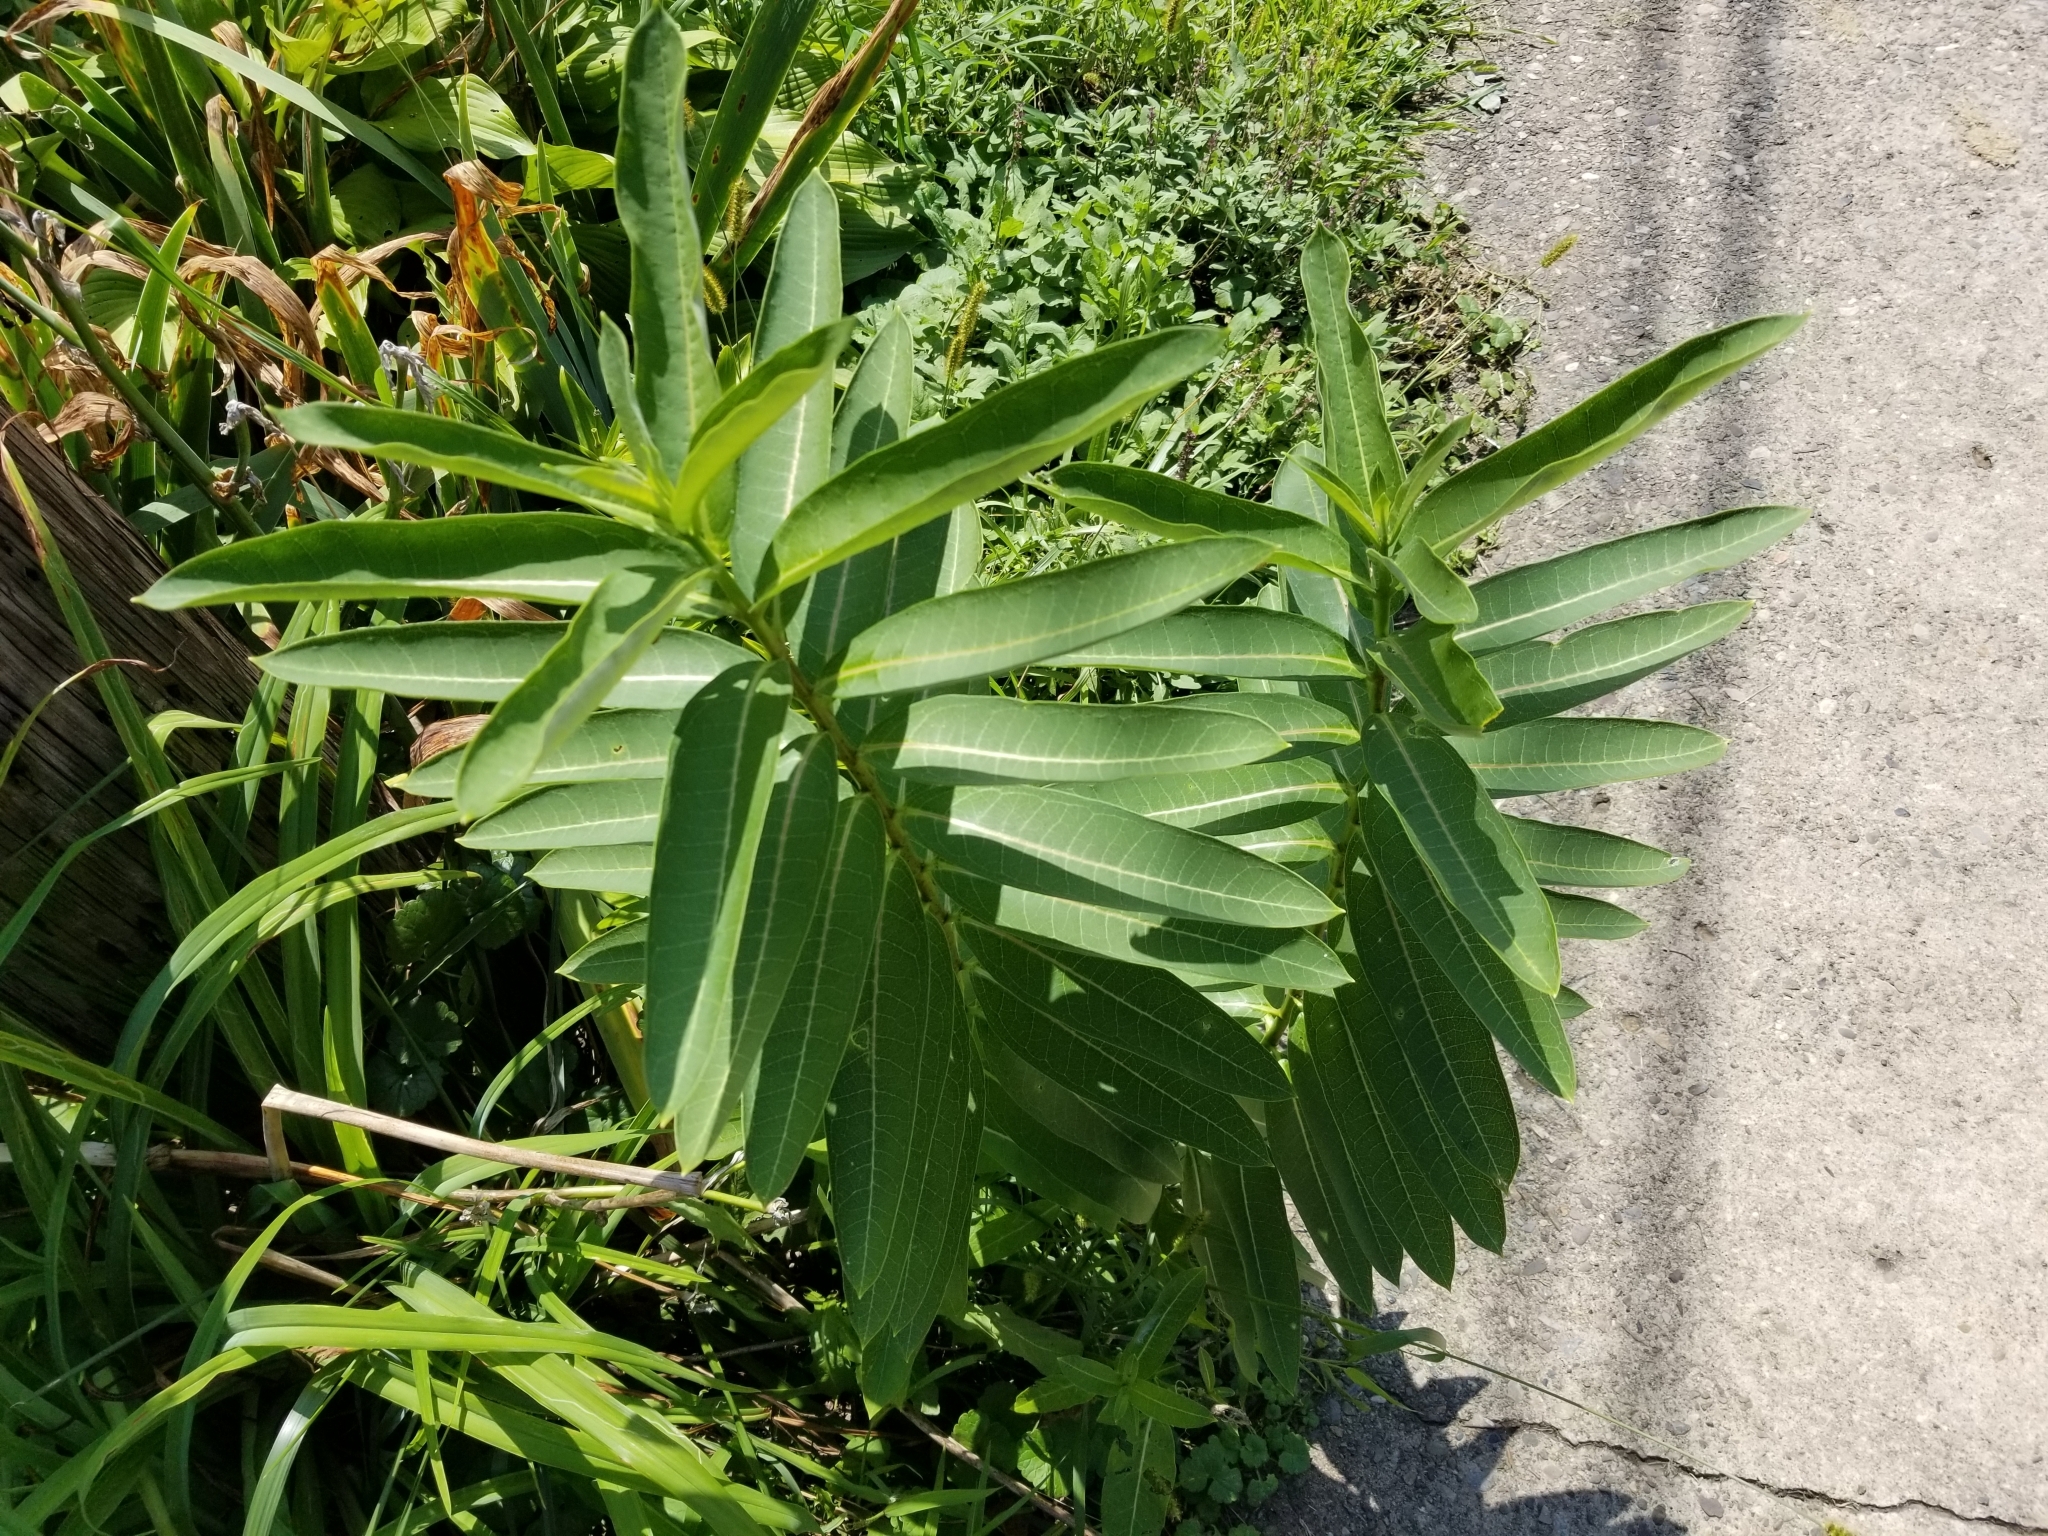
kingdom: Plantae
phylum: Tracheophyta
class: Magnoliopsida
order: Gentianales
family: Apocynaceae
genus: Asclepias
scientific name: Asclepias syriaca
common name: Common milkweed
